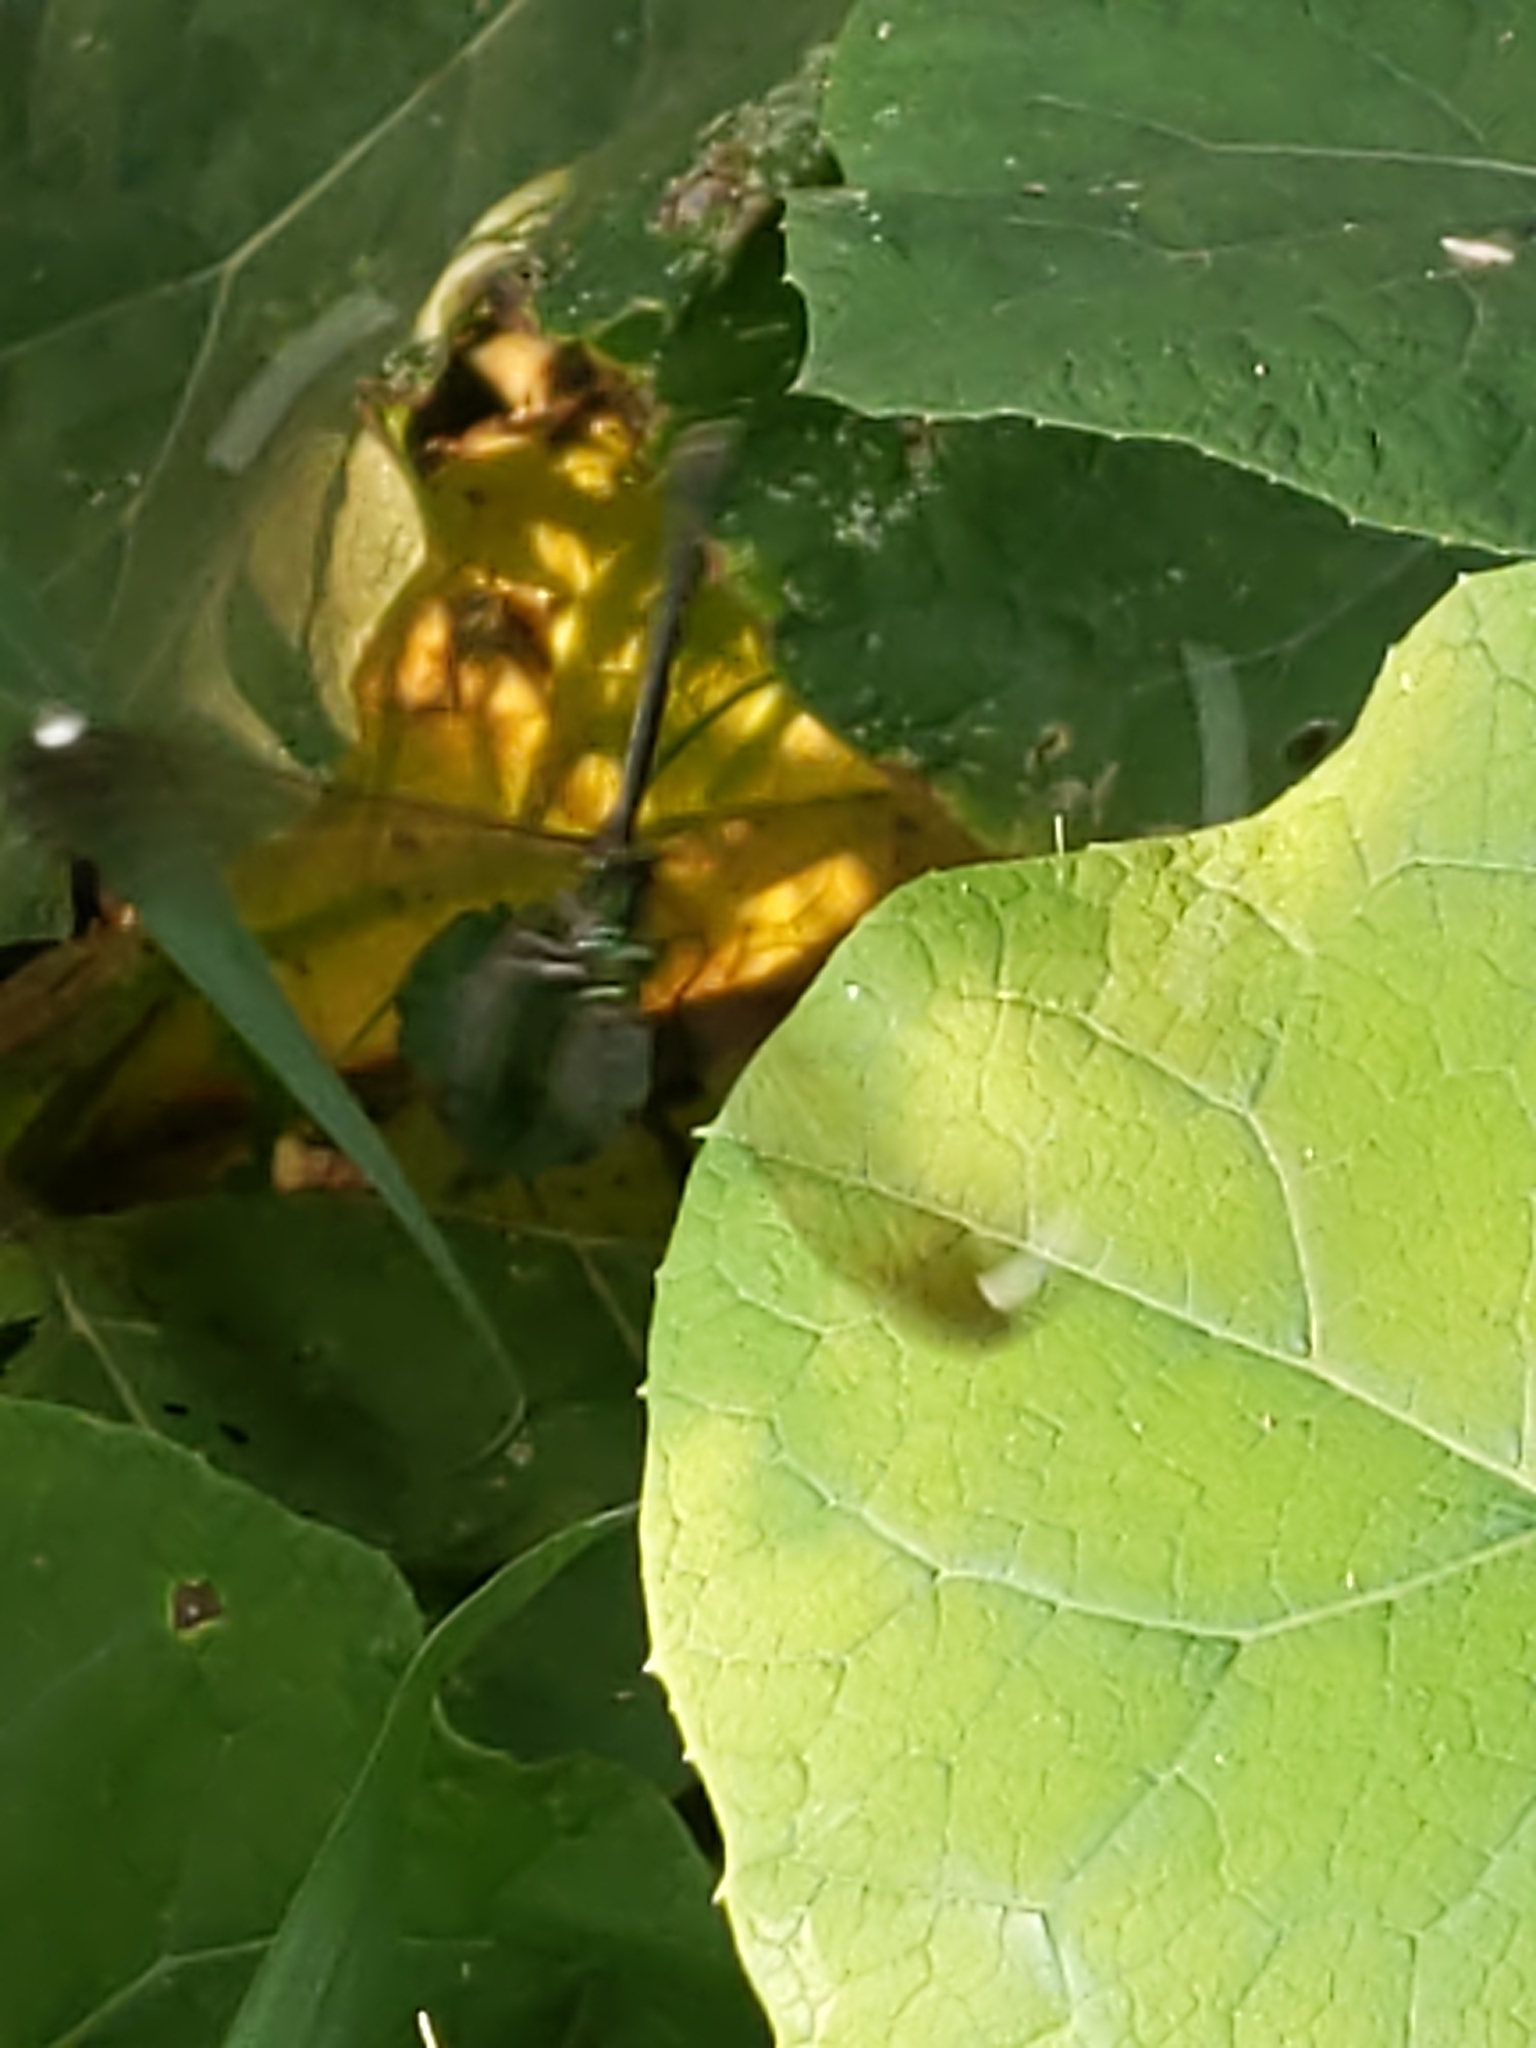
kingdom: Animalia
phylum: Arthropoda
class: Insecta
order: Odonata
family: Calopterygidae
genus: Calopteryx
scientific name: Calopteryx maculata
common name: Ebony jewelwing
